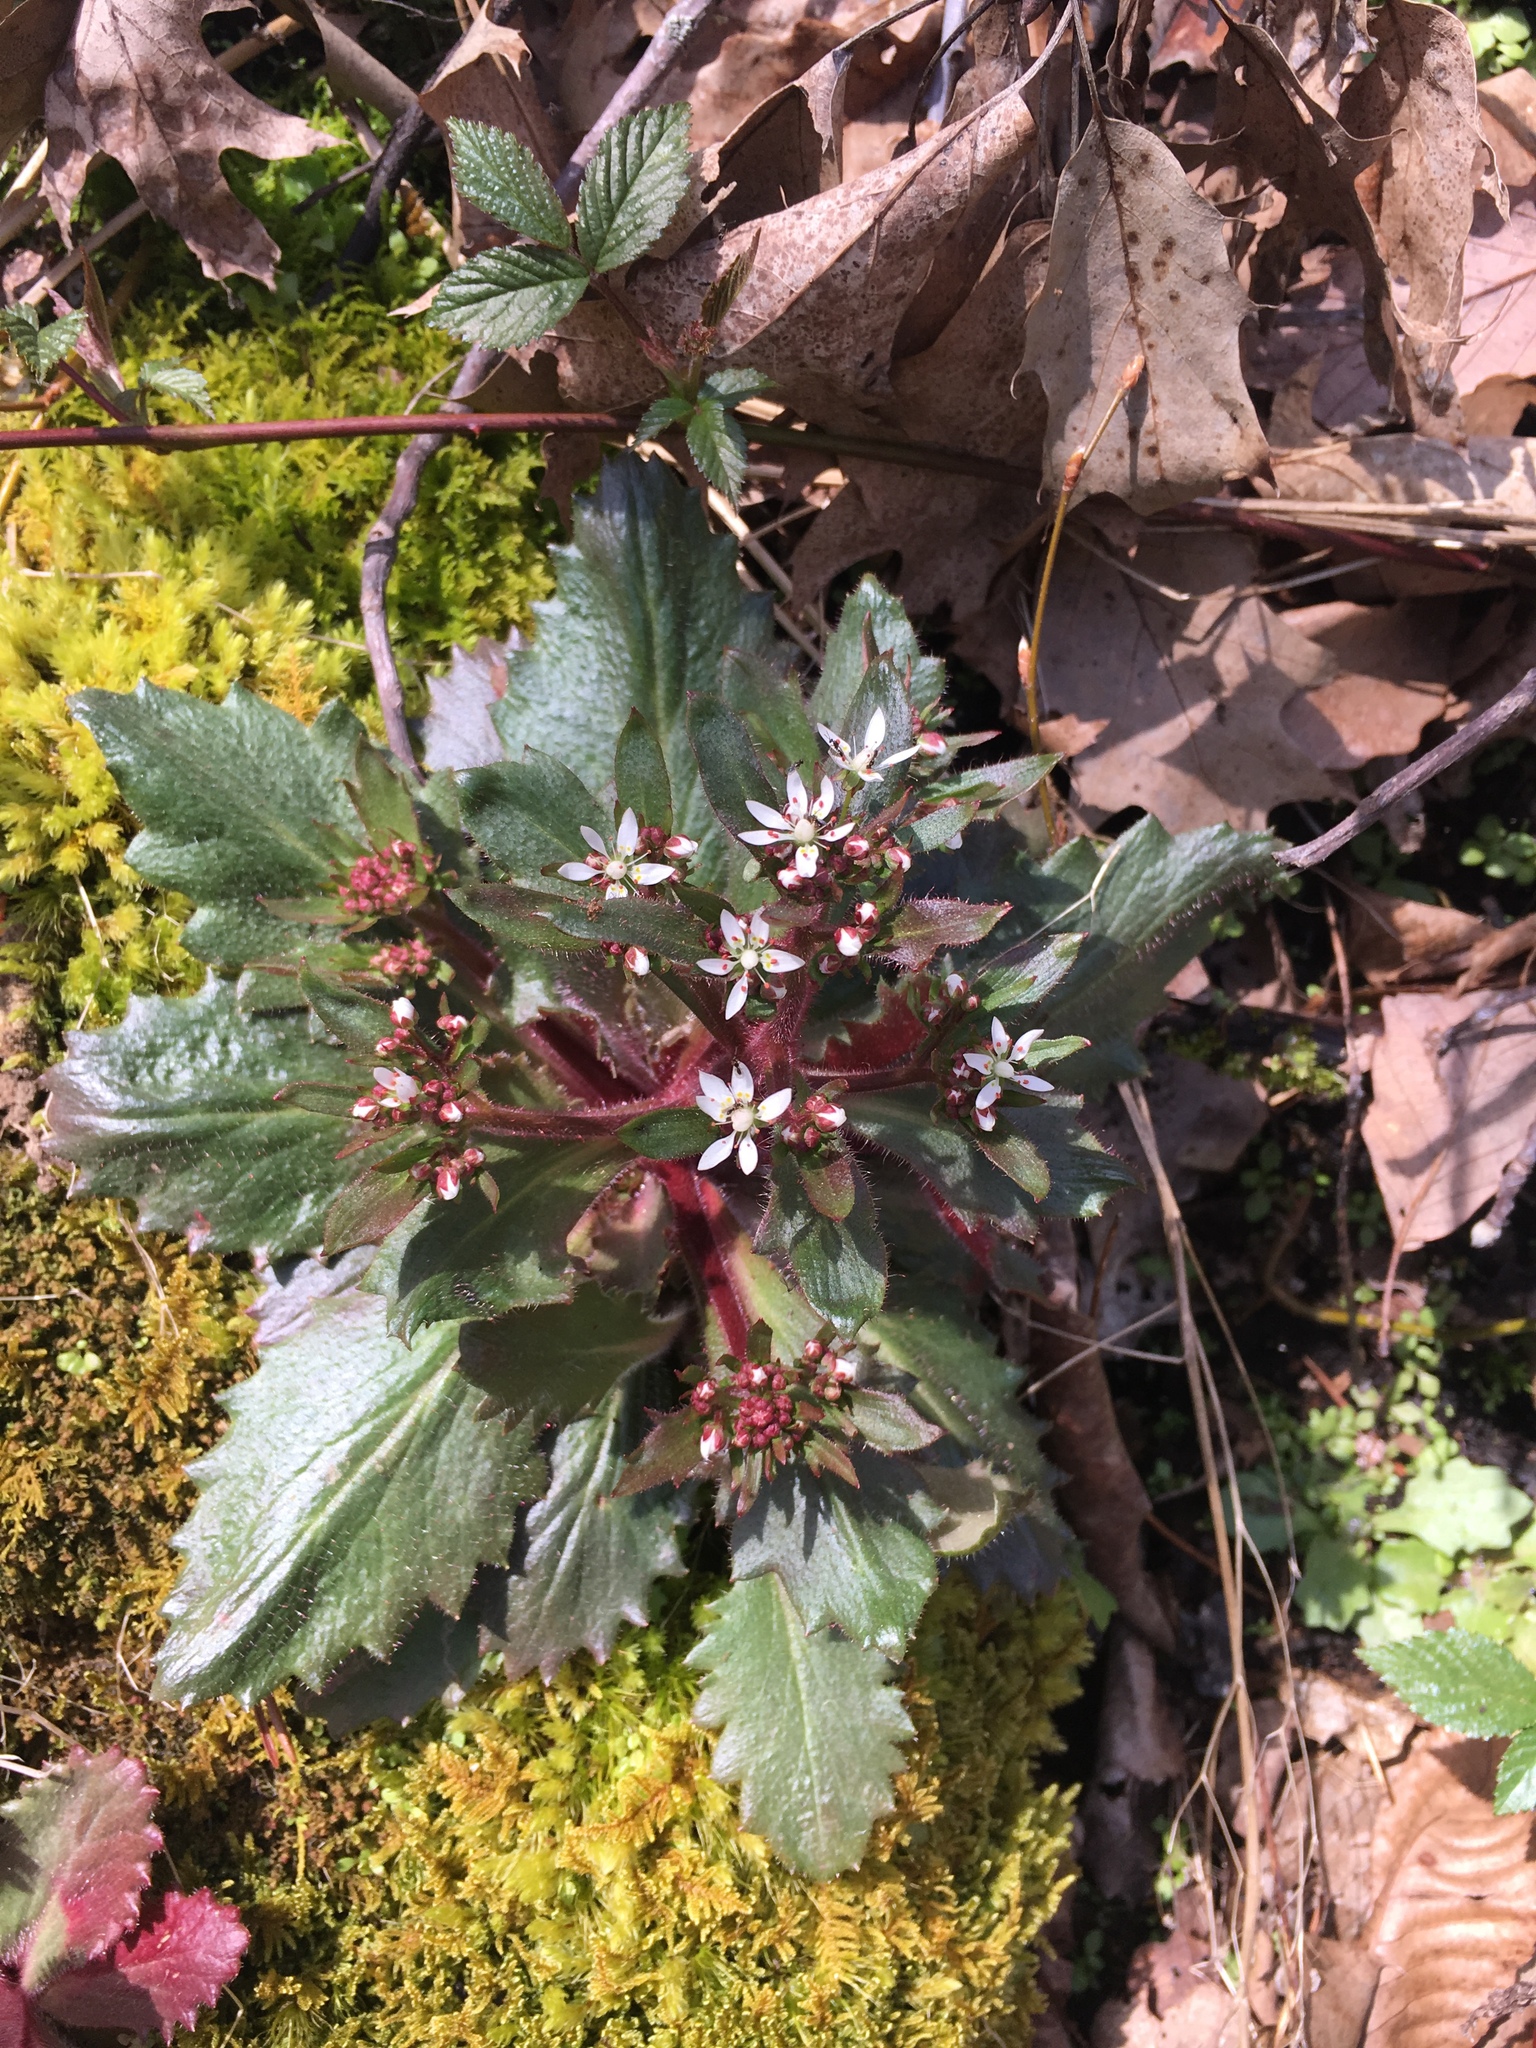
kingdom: Plantae
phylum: Tracheophyta
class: Magnoliopsida
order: Saxifragales
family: Saxifragaceae
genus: Micranthes
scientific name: Micranthes petiolaris
